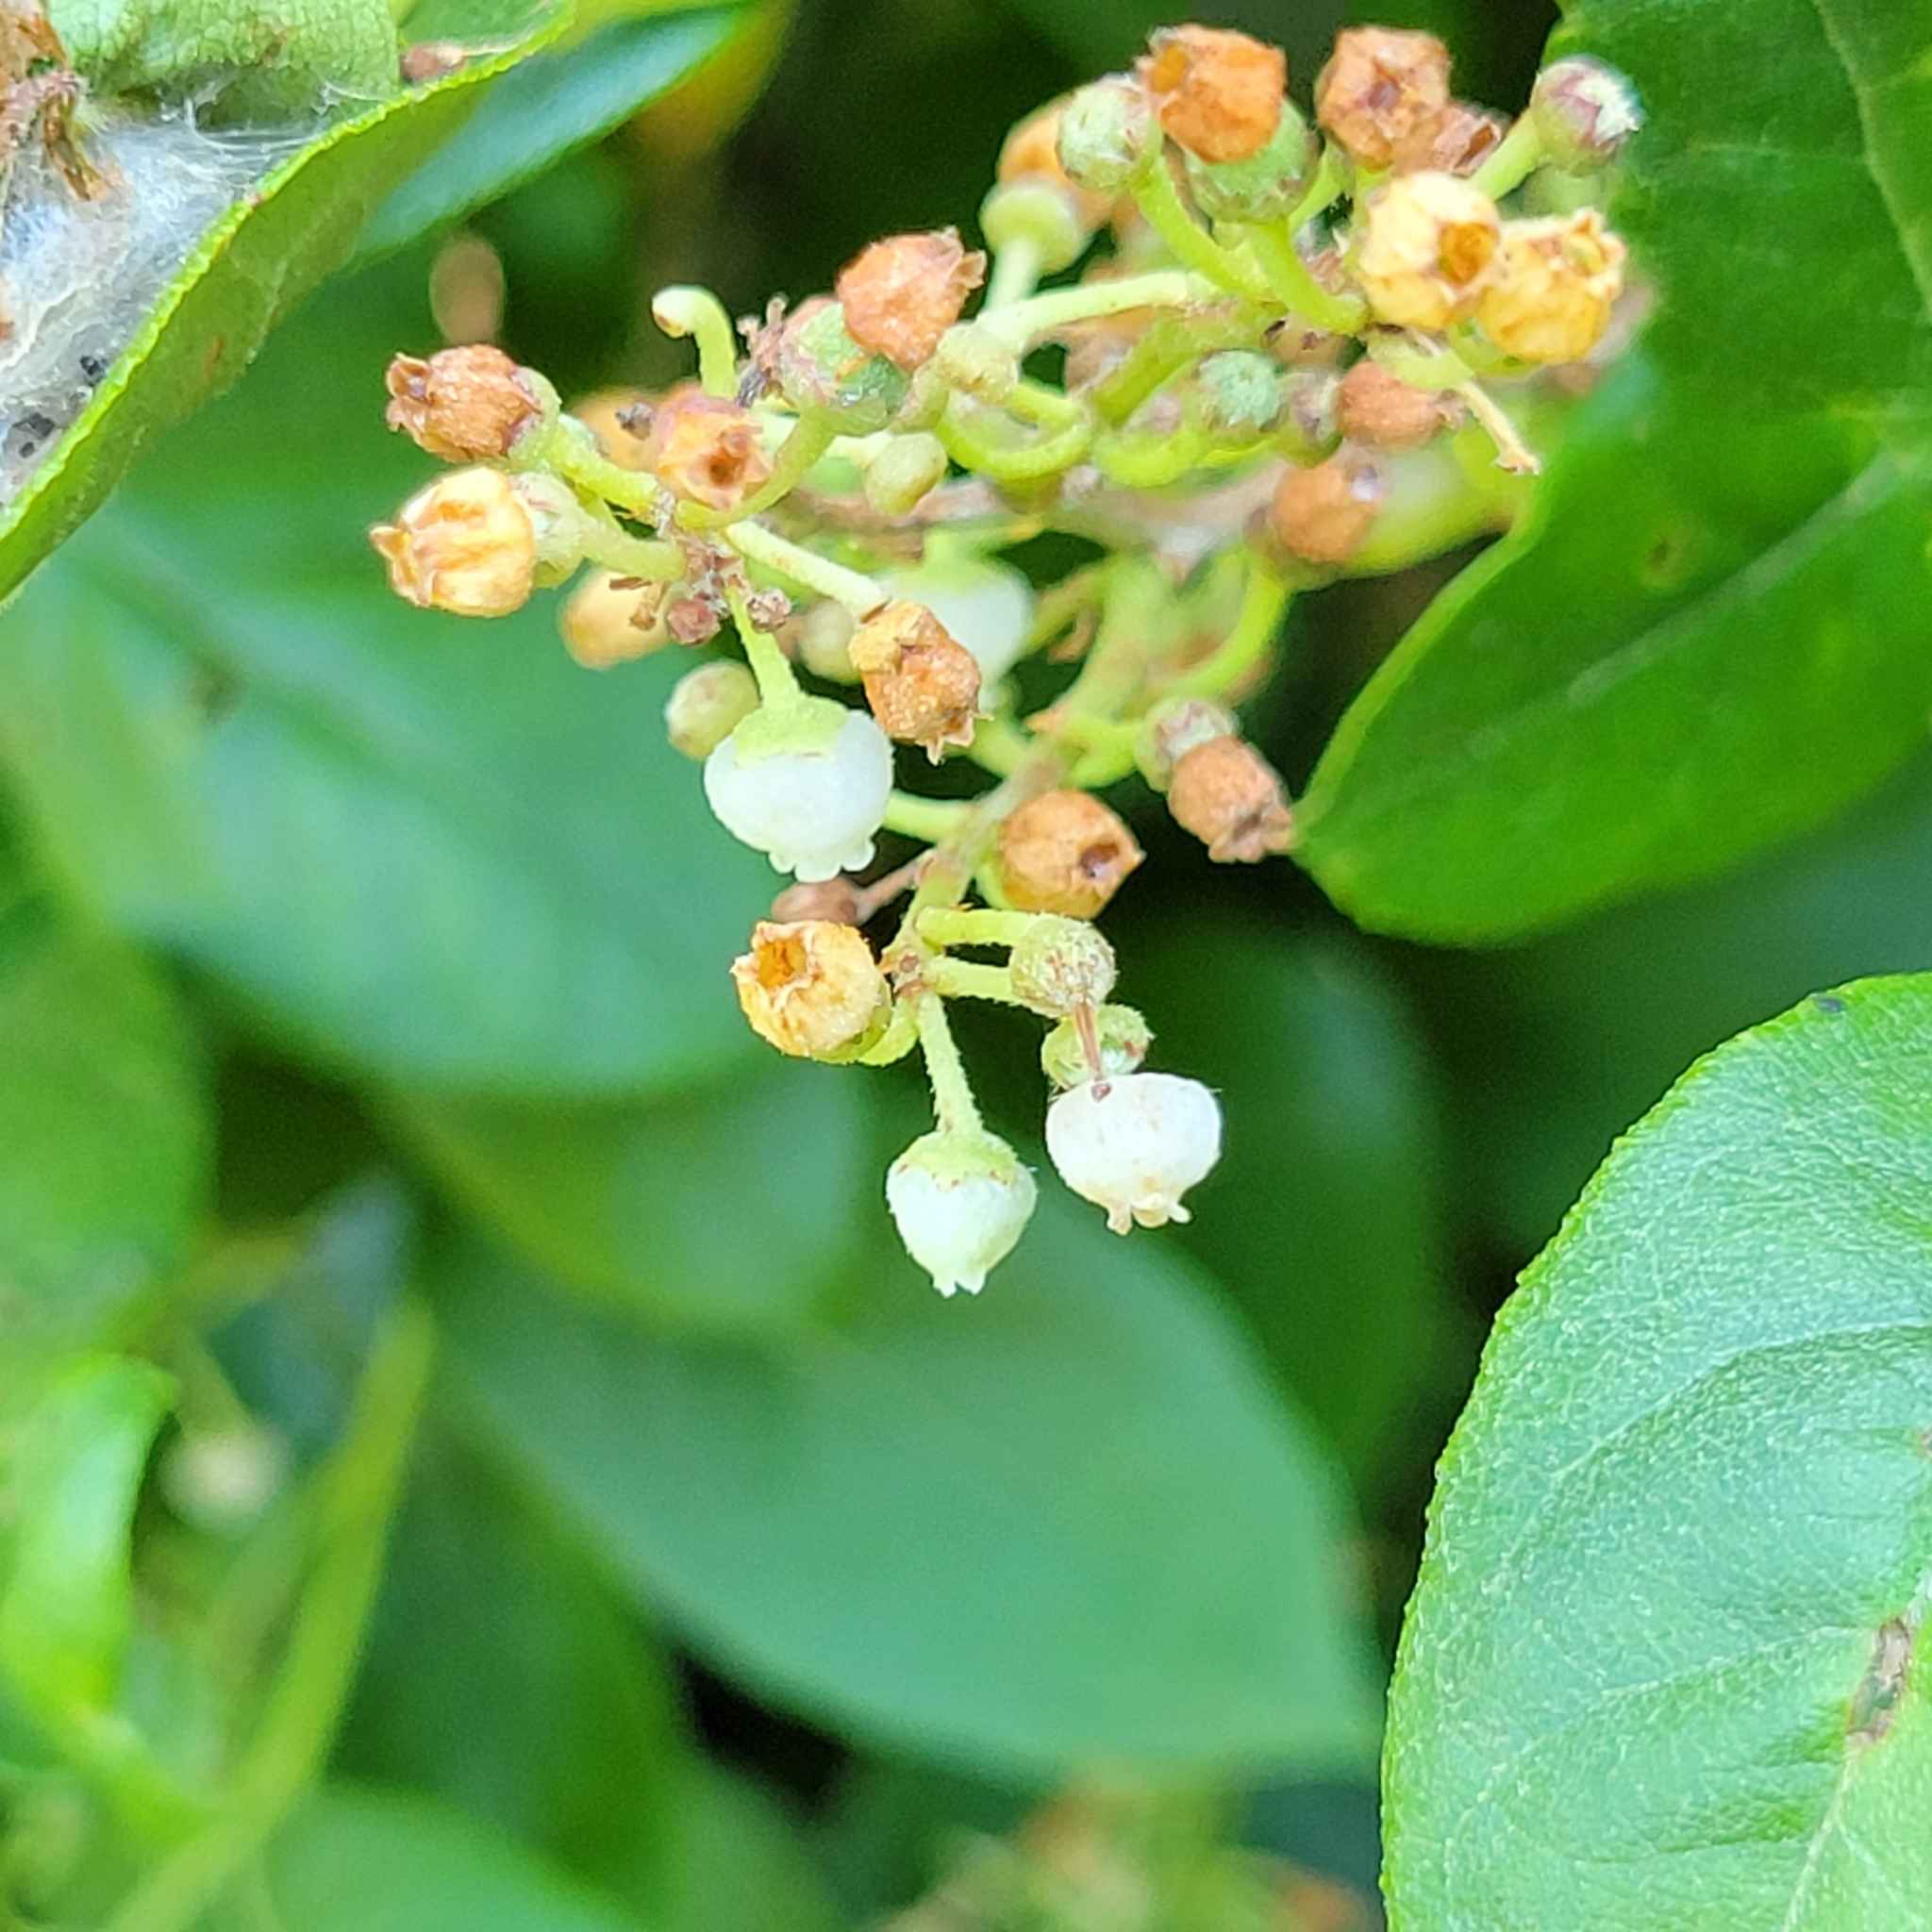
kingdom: Plantae
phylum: Tracheophyta
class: Magnoliopsida
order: Ericales
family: Ericaceae
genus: Lyonia
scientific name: Lyonia ligustrina
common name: Maleberry
